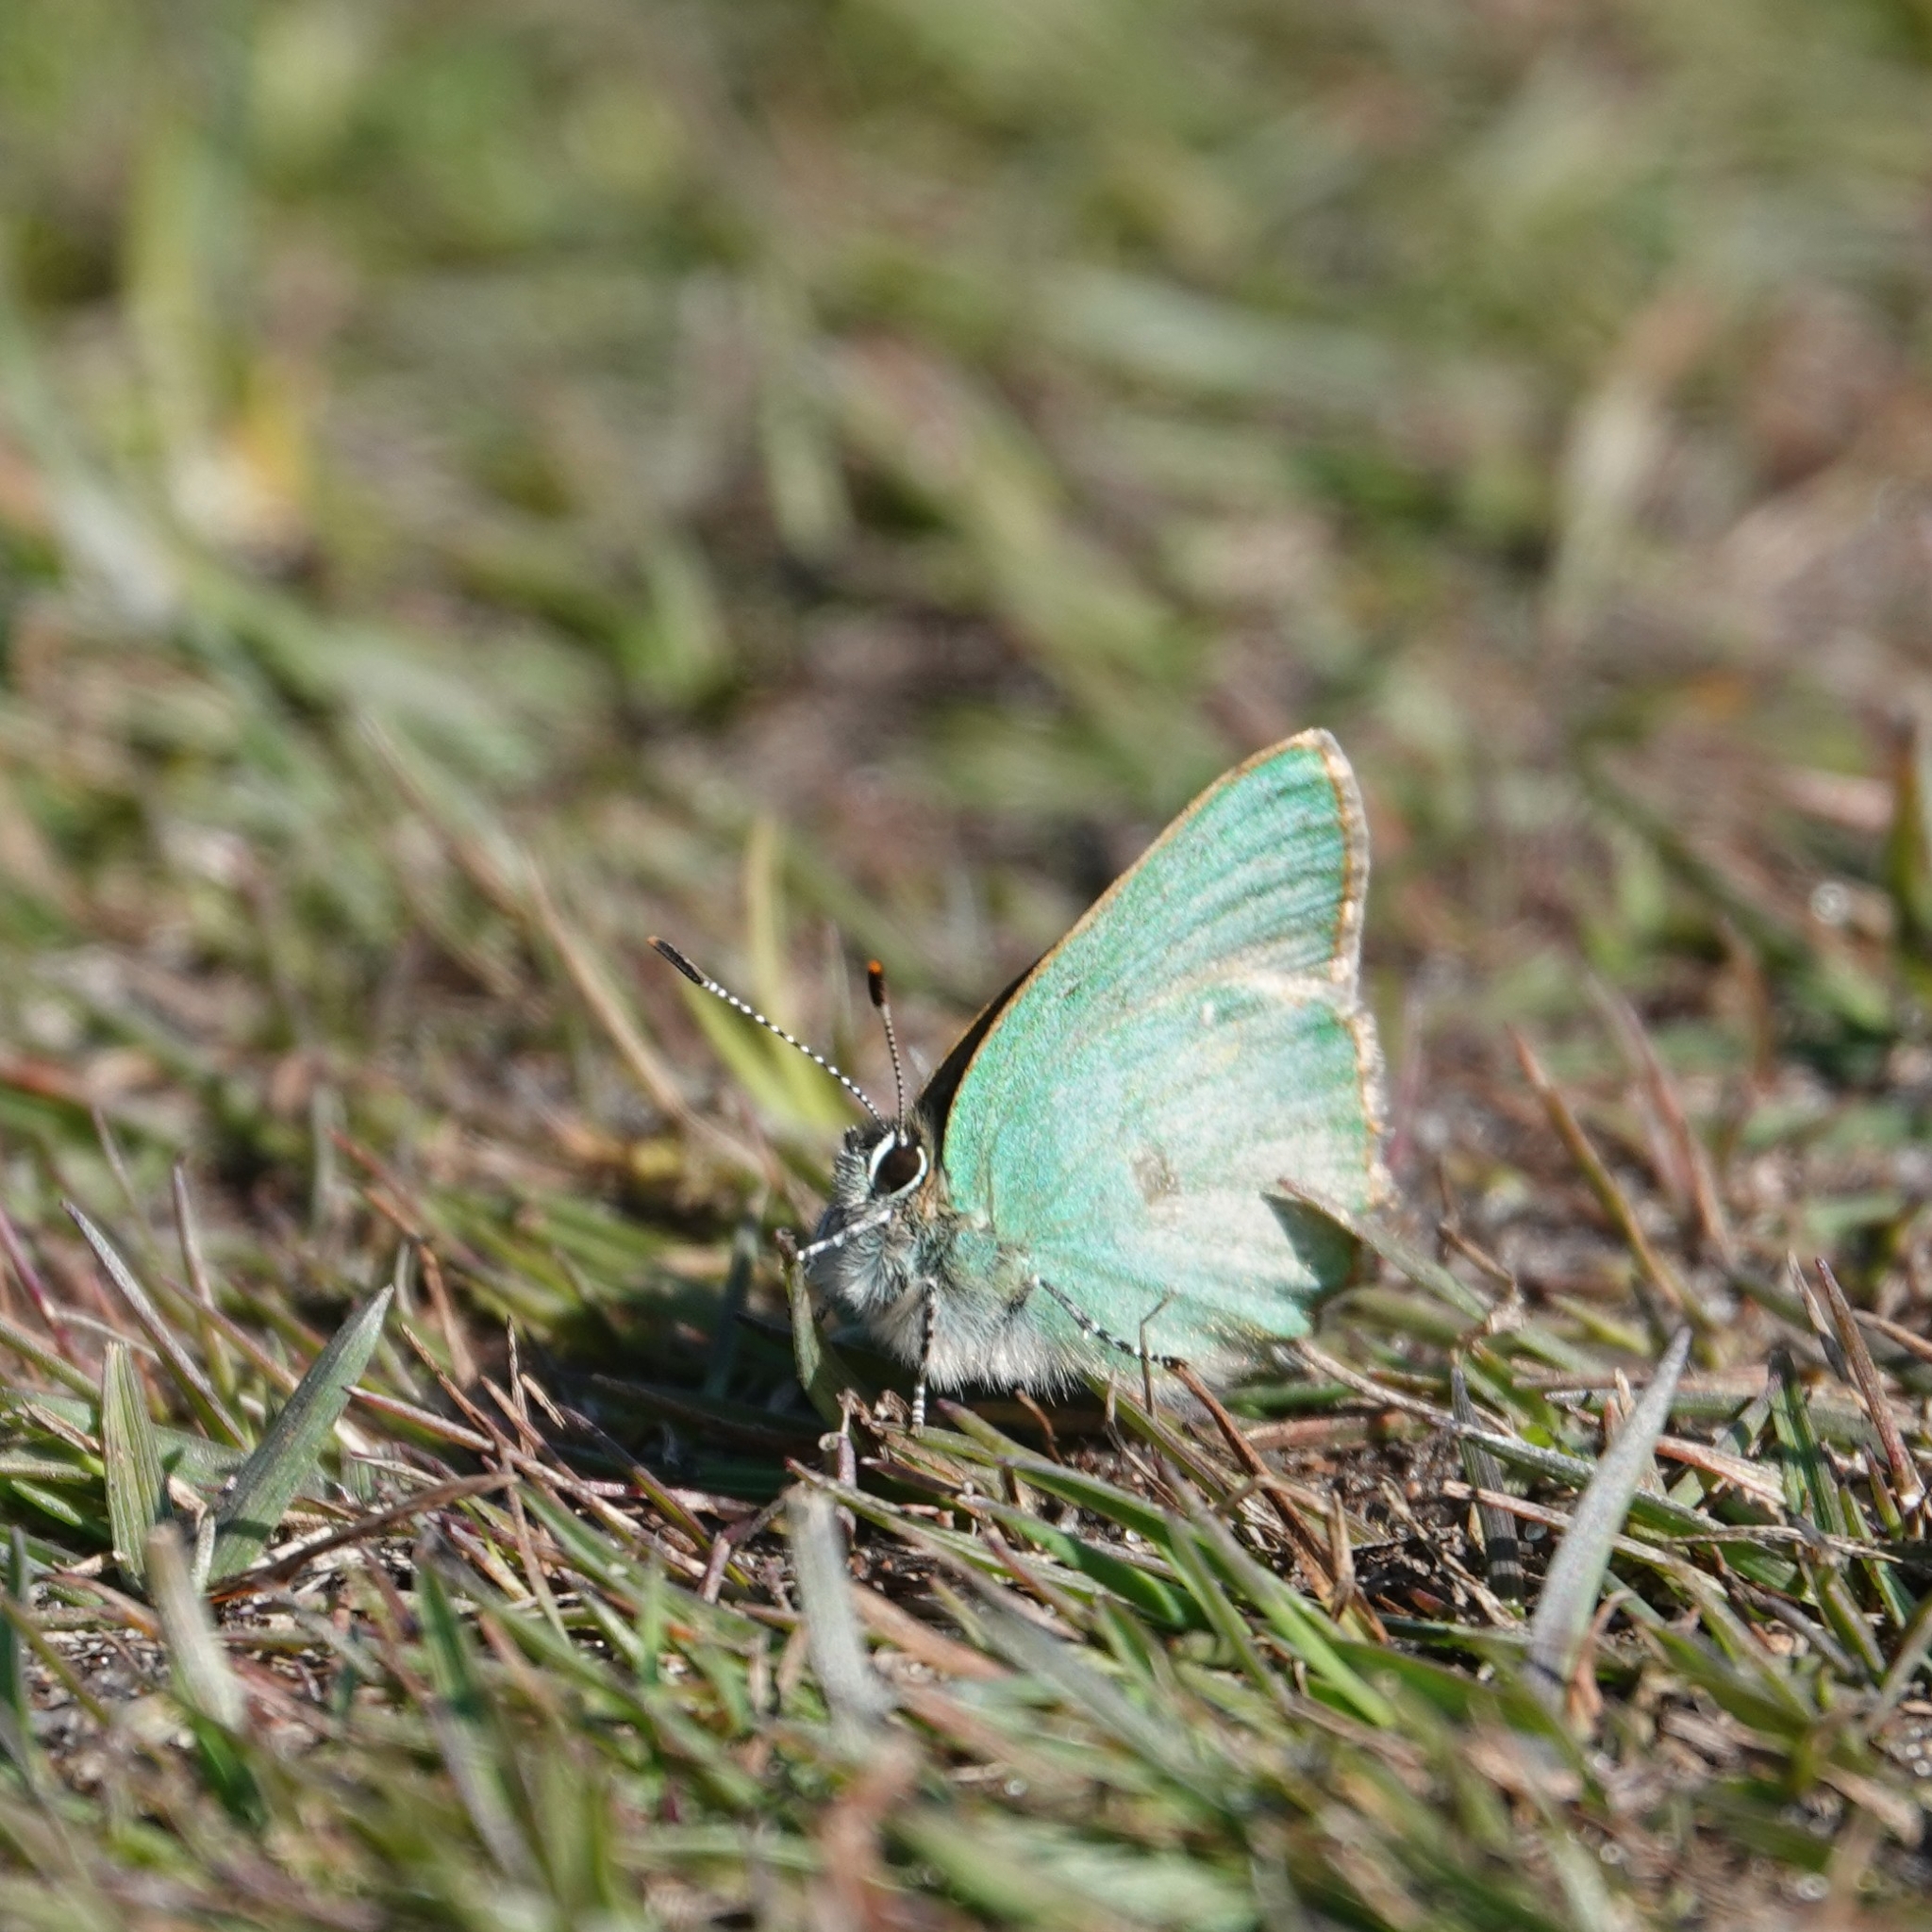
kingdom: Animalia
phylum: Arthropoda
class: Insecta
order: Lepidoptera
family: Lycaenidae
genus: Callophrys
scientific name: Callophrys rubi
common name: Green hairstreak
